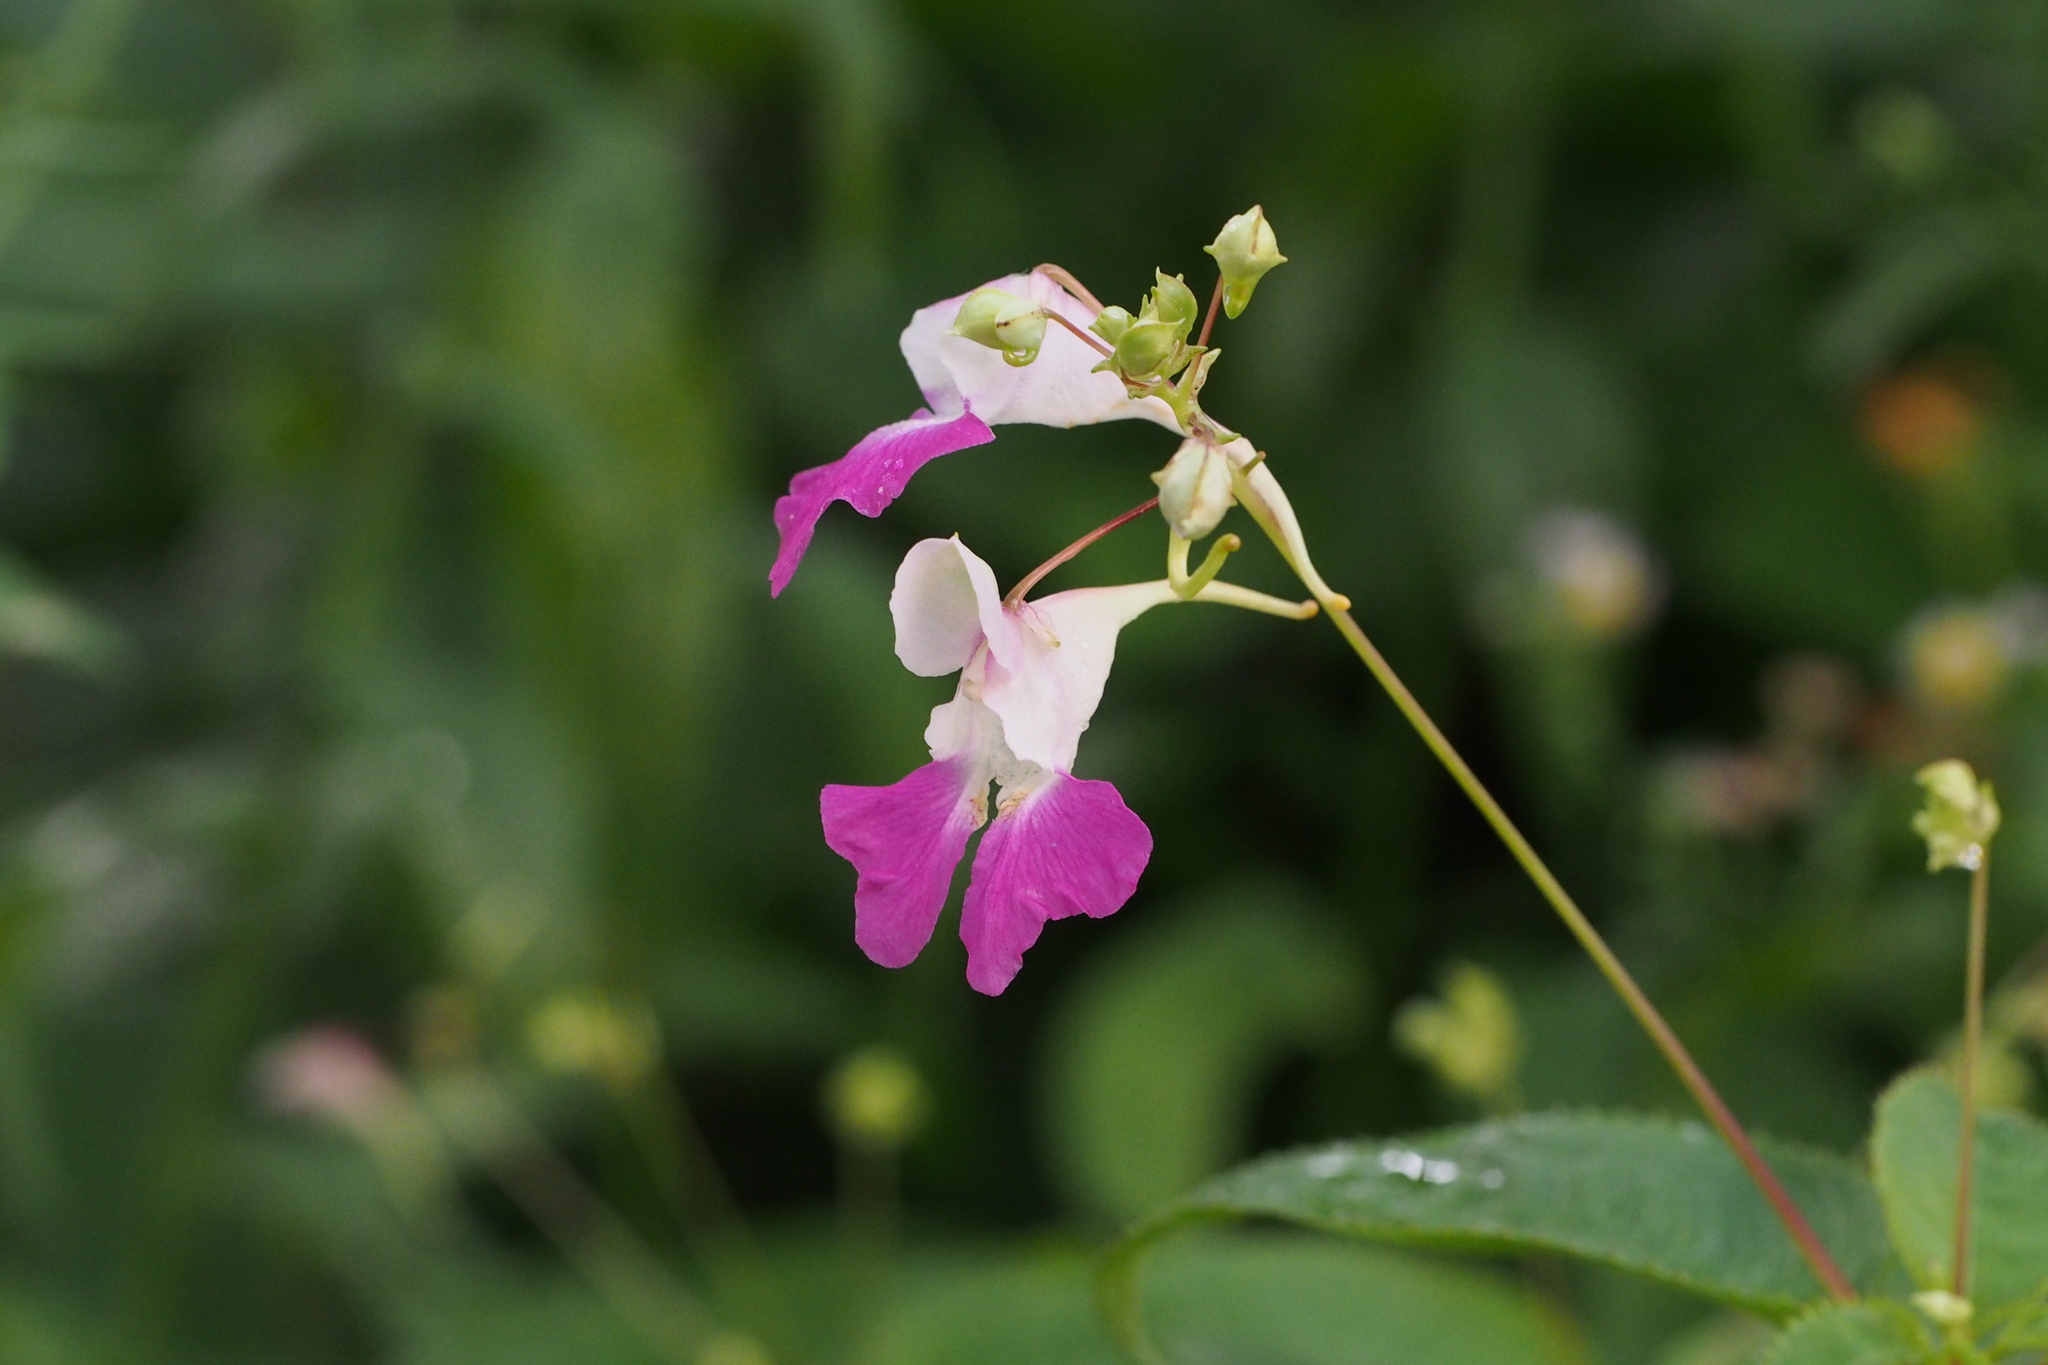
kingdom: Plantae
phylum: Tracheophyta
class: Magnoliopsida
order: Ericales
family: Balsaminaceae
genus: Impatiens
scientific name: Impatiens balfourii
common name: Balfour's touch-me-not
